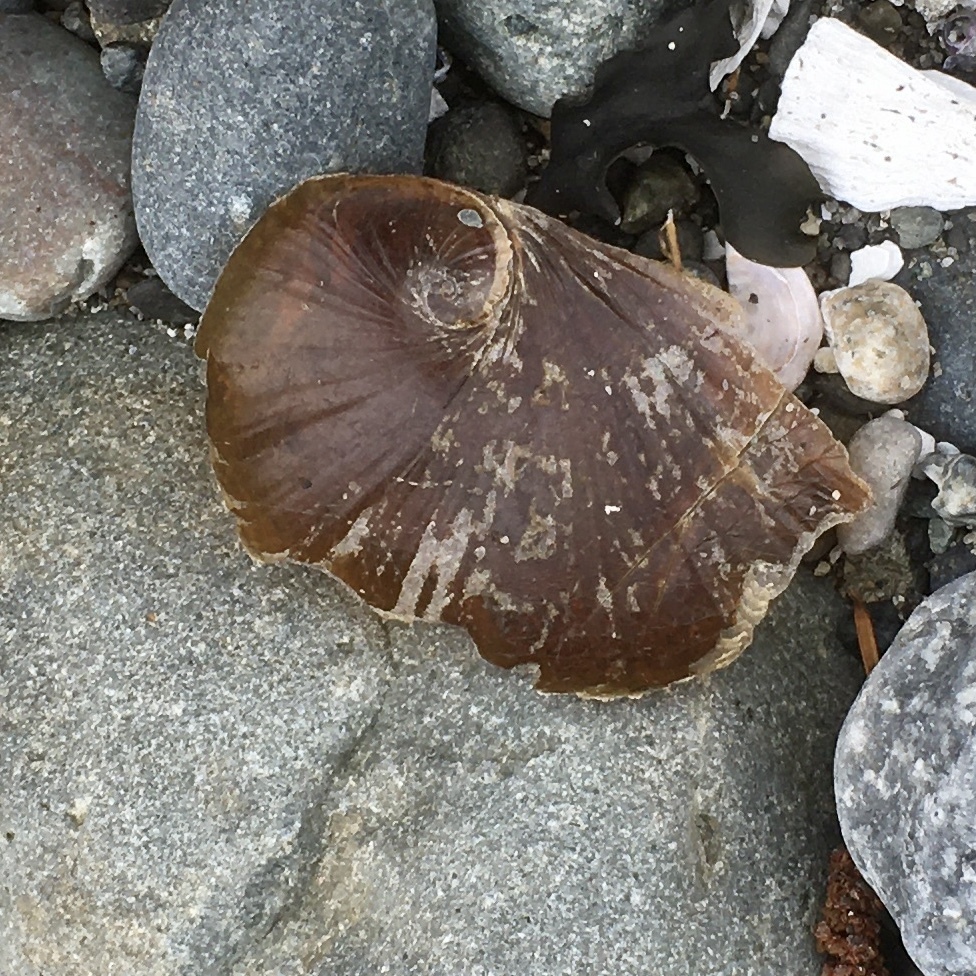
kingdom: Animalia
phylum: Mollusca
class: Gastropoda
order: Littorinimorpha
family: Naticidae
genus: Neverita
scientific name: Neverita lewisii
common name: Lewis' moonsnail
